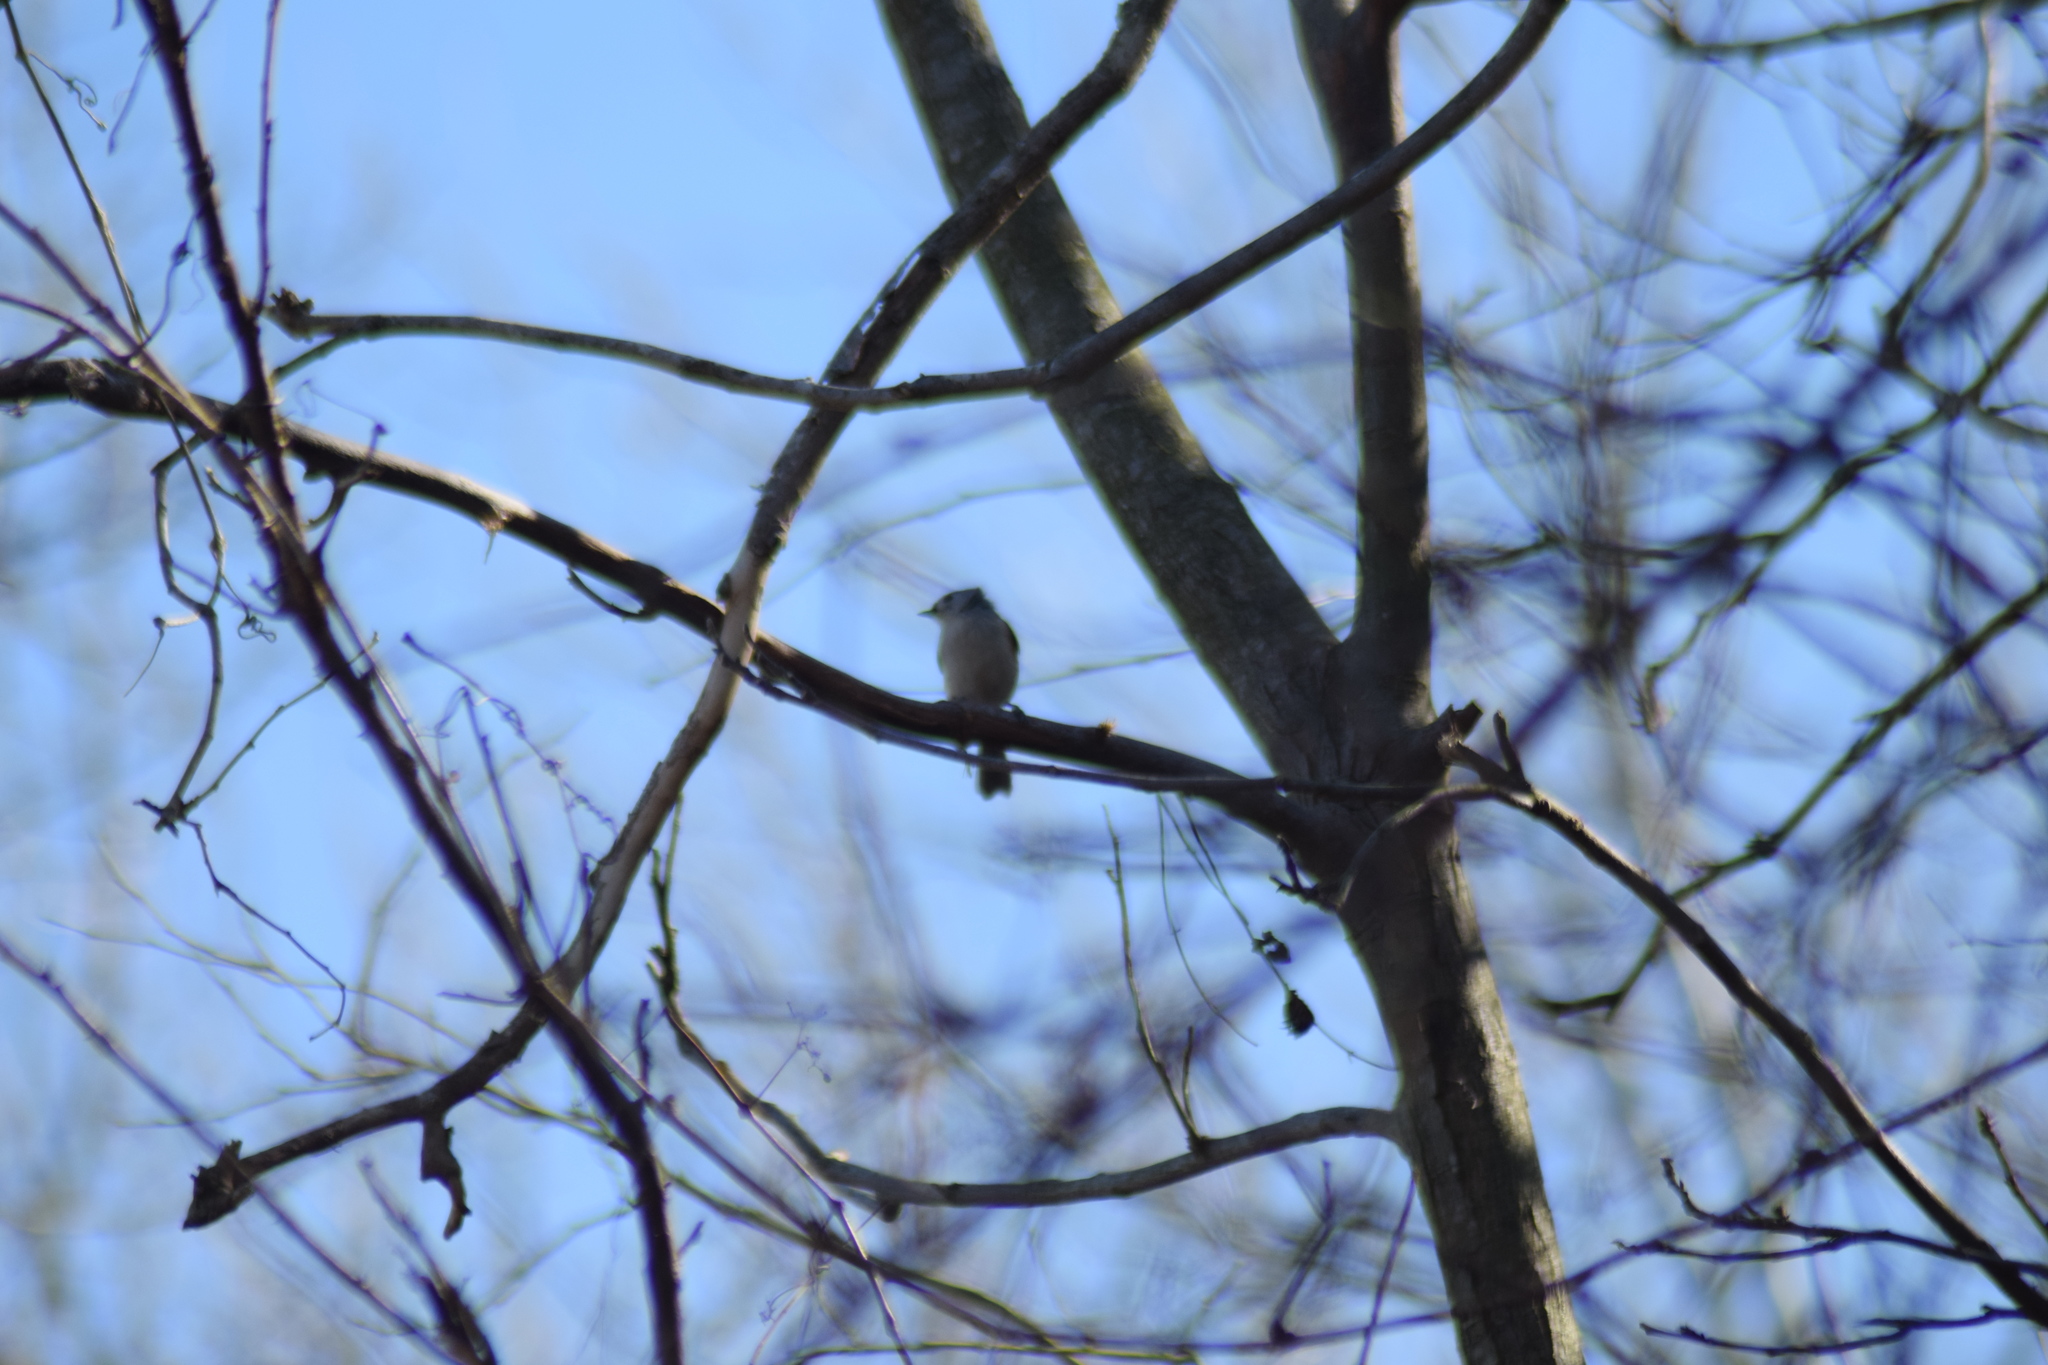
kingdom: Animalia
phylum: Chordata
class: Aves
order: Passeriformes
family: Paridae
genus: Baeolophus
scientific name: Baeolophus bicolor
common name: Tufted titmouse
